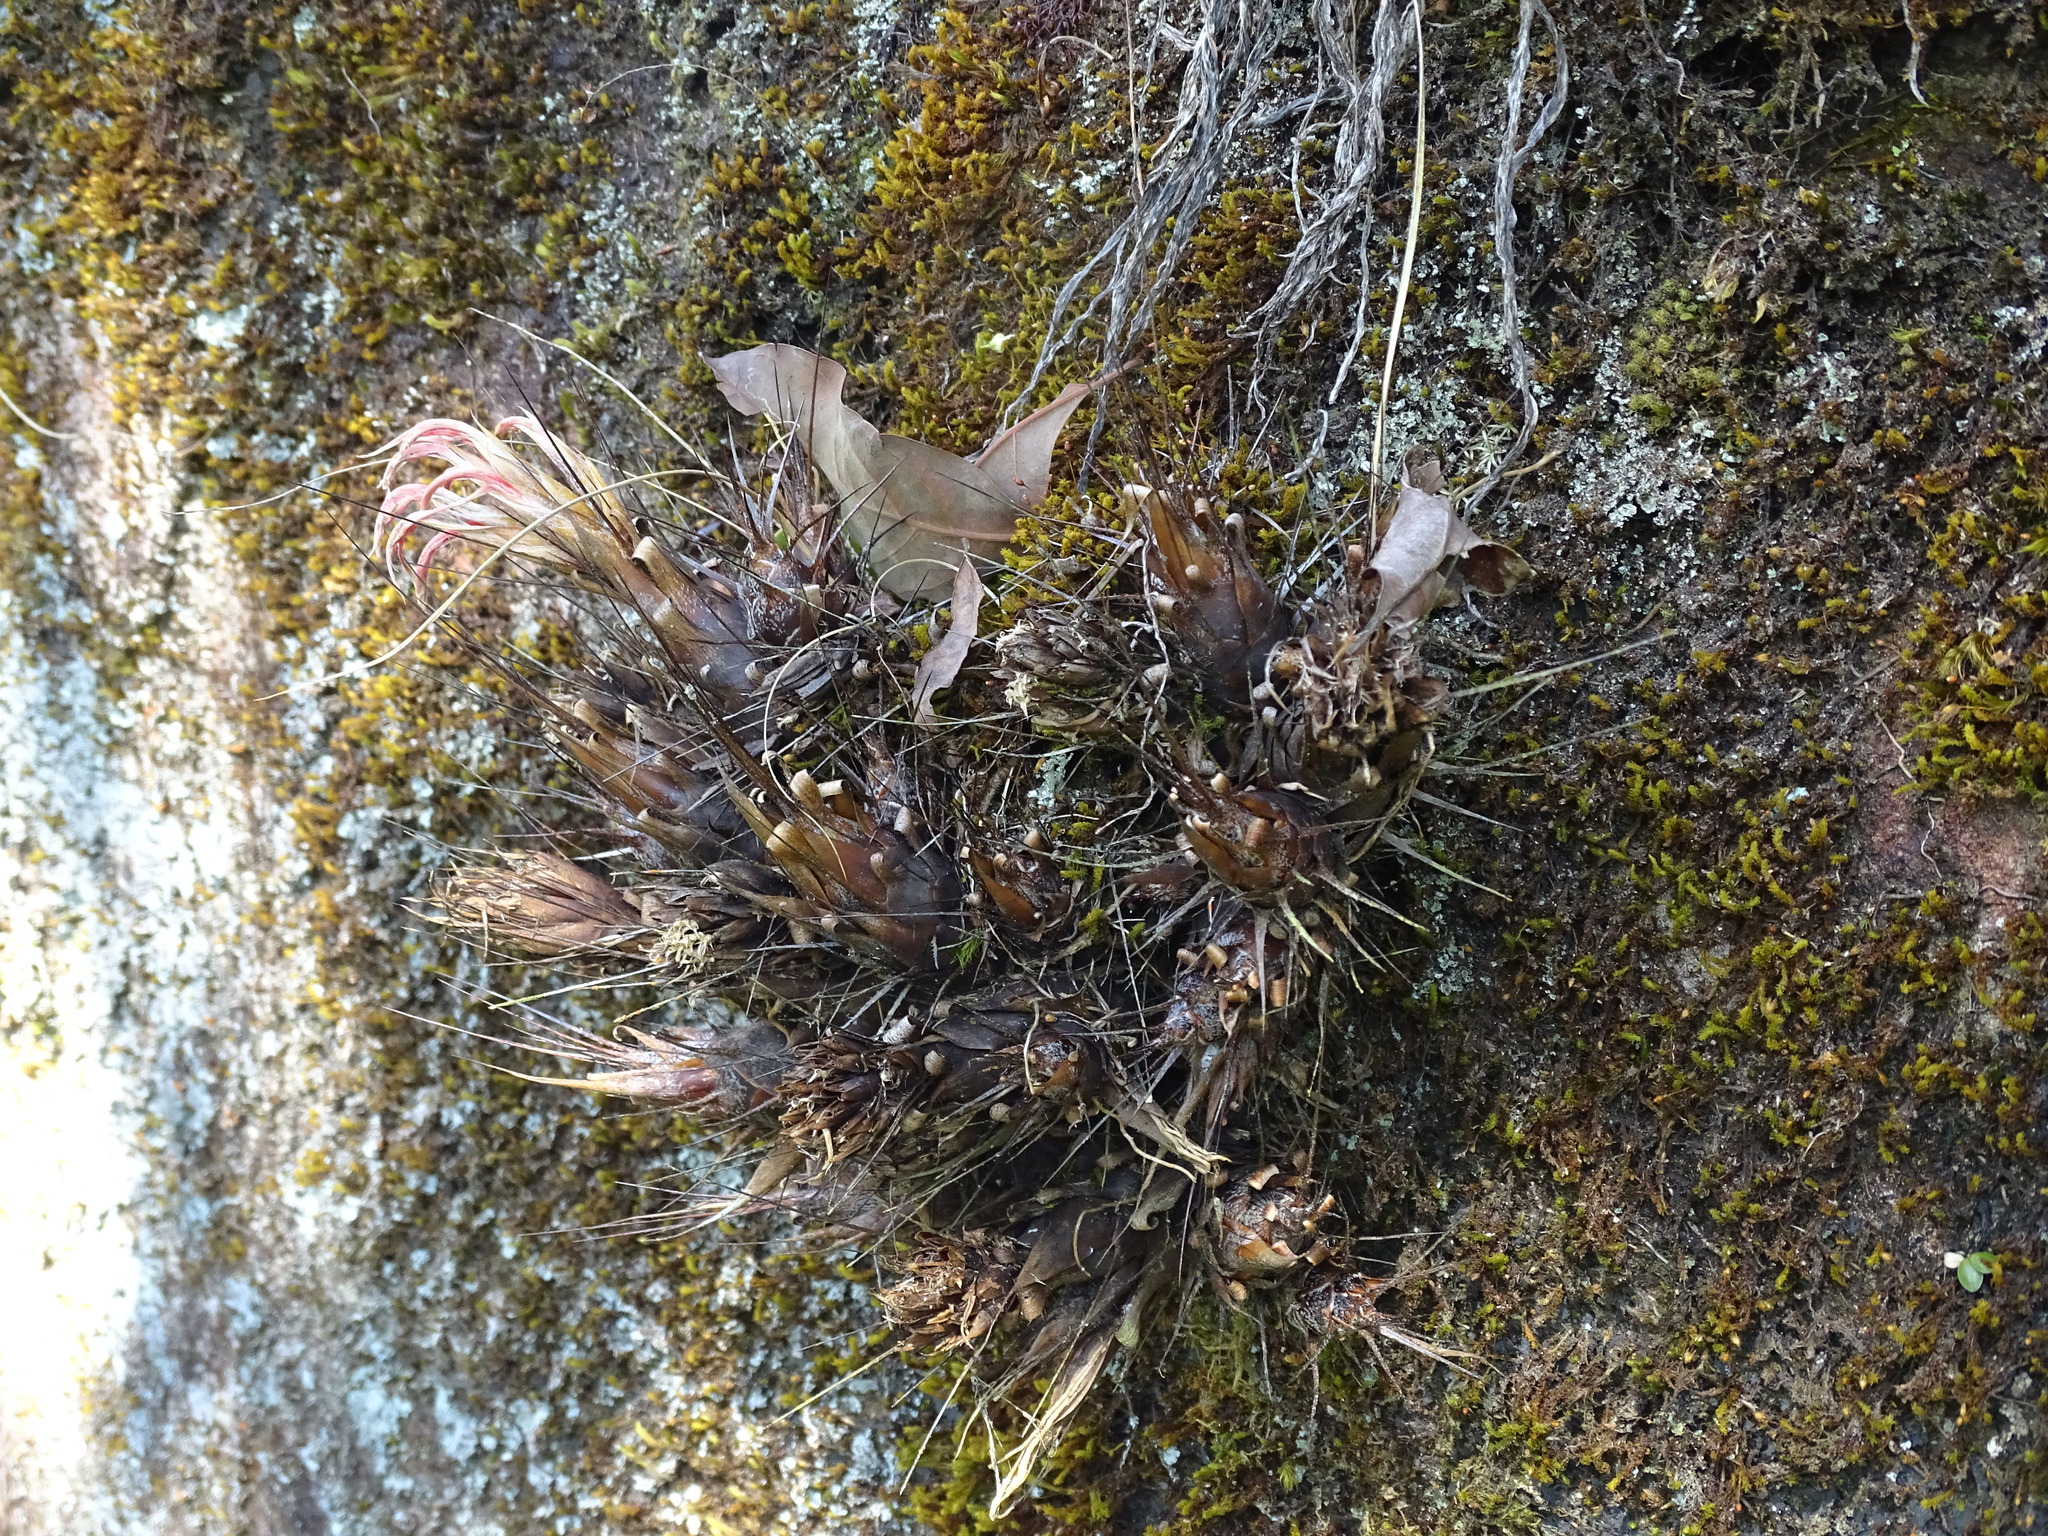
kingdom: Plantae
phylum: Tracheophyta
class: Liliopsida
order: Poales
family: Bromeliaceae
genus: Pitcairnia
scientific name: Pitcairnia heterophylla
